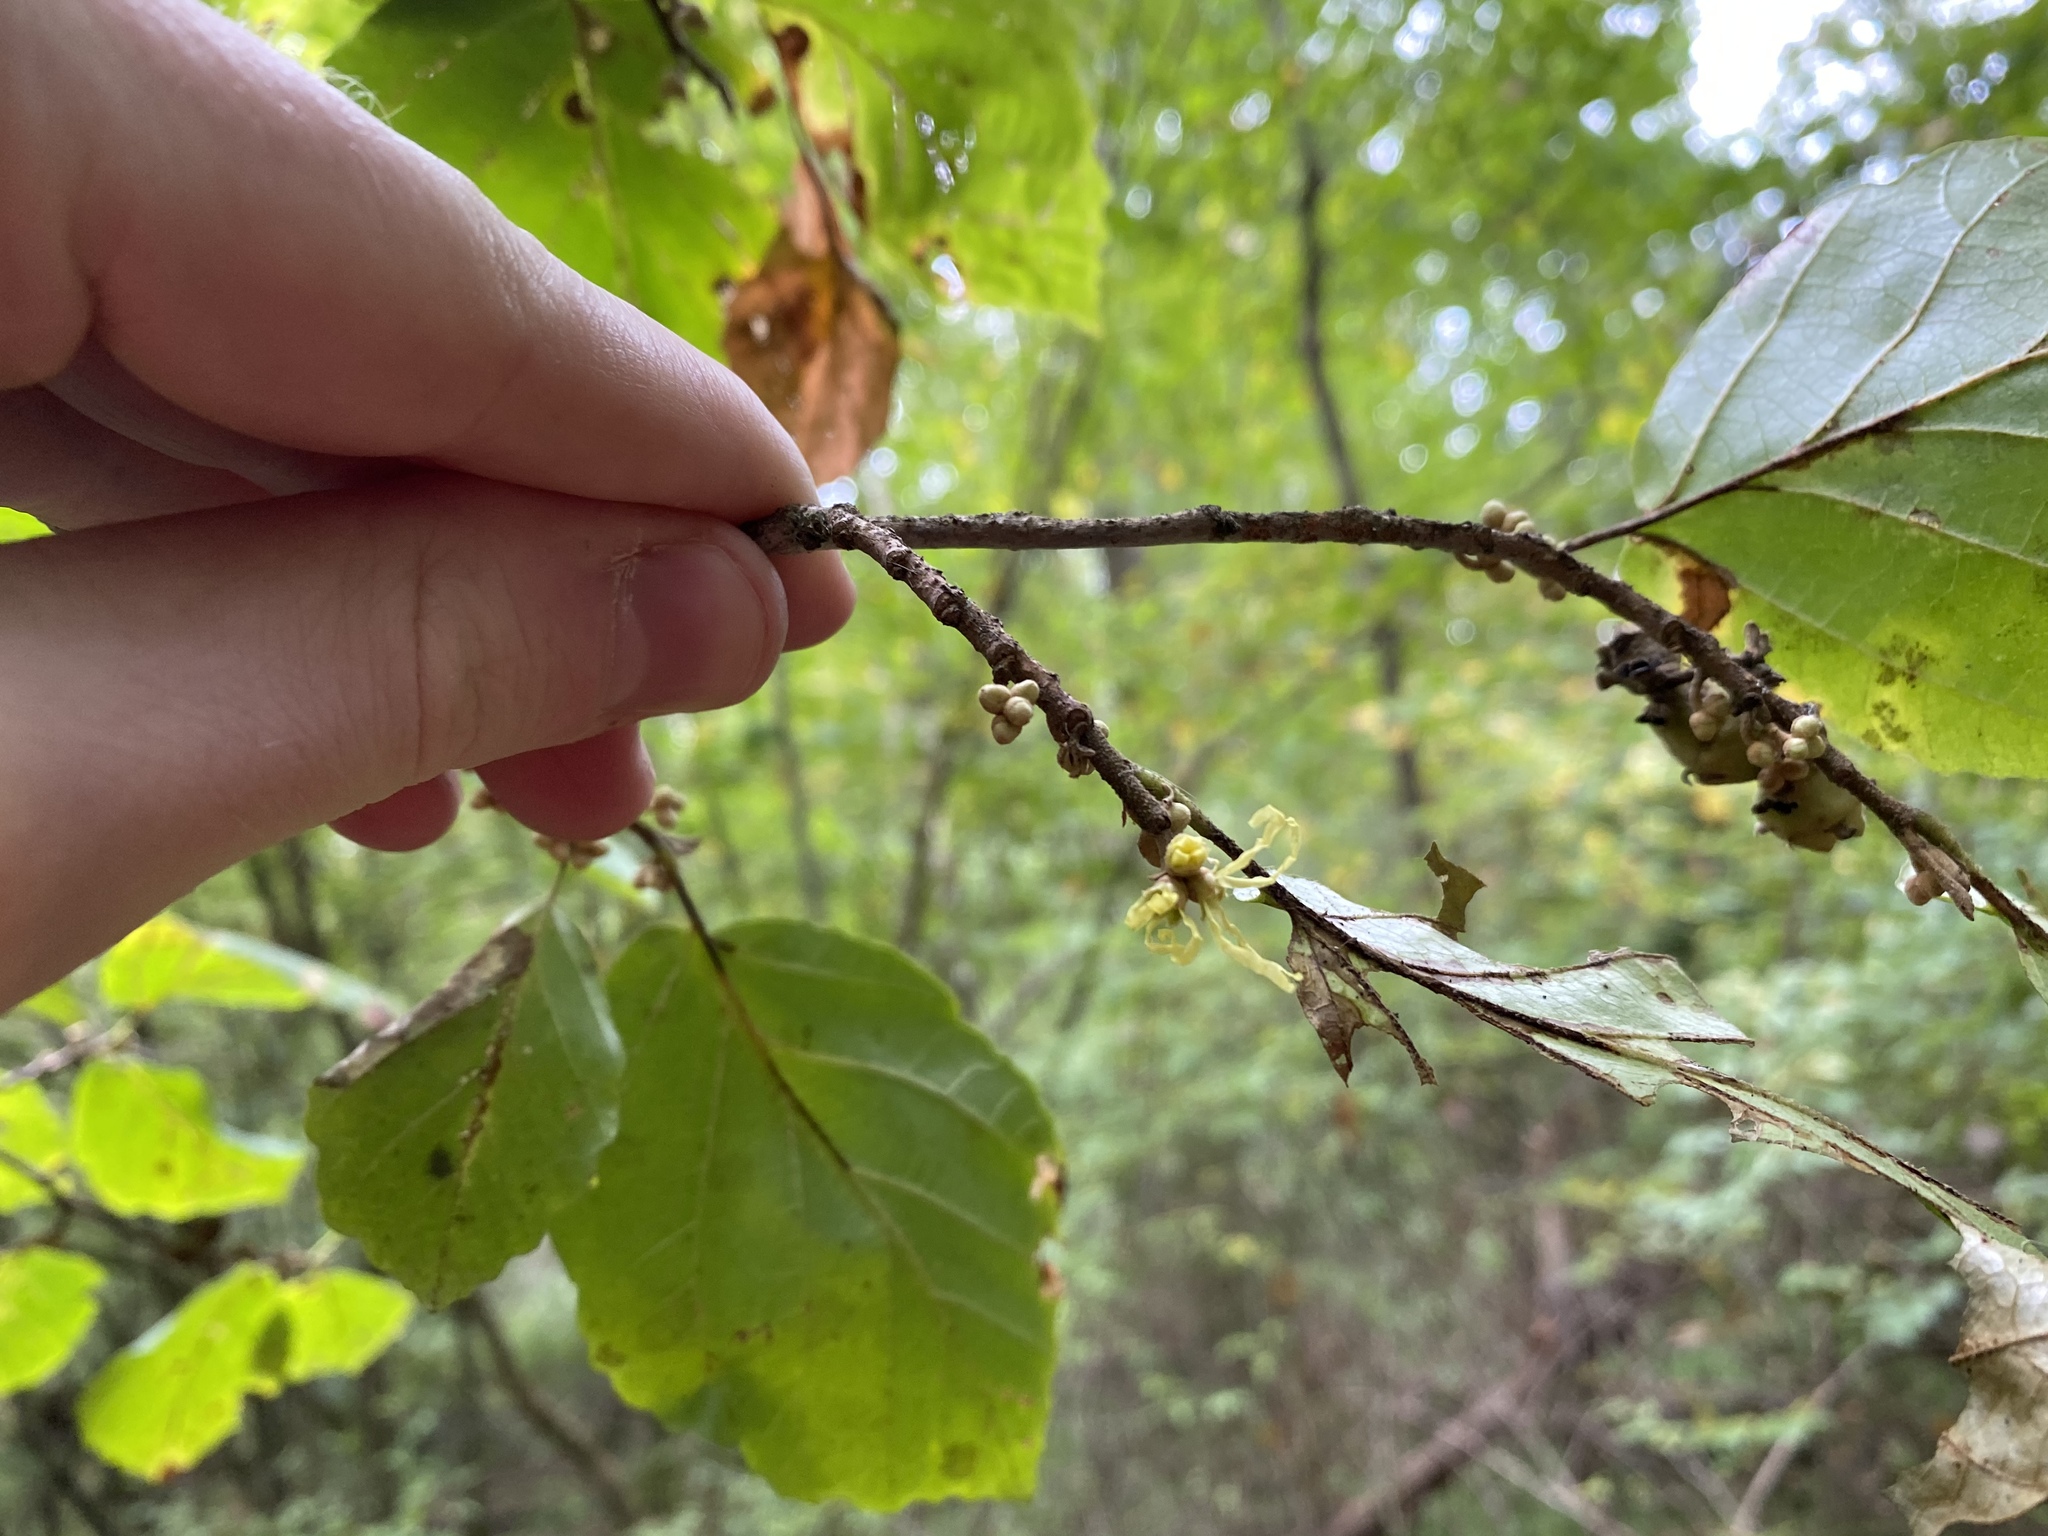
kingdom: Plantae
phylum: Tracheophyta
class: Magnoliopsida
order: Saxifragales
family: Hamamelidaceae
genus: Hamamelis
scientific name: Hamamelis virginiana
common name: Witch-hazel
